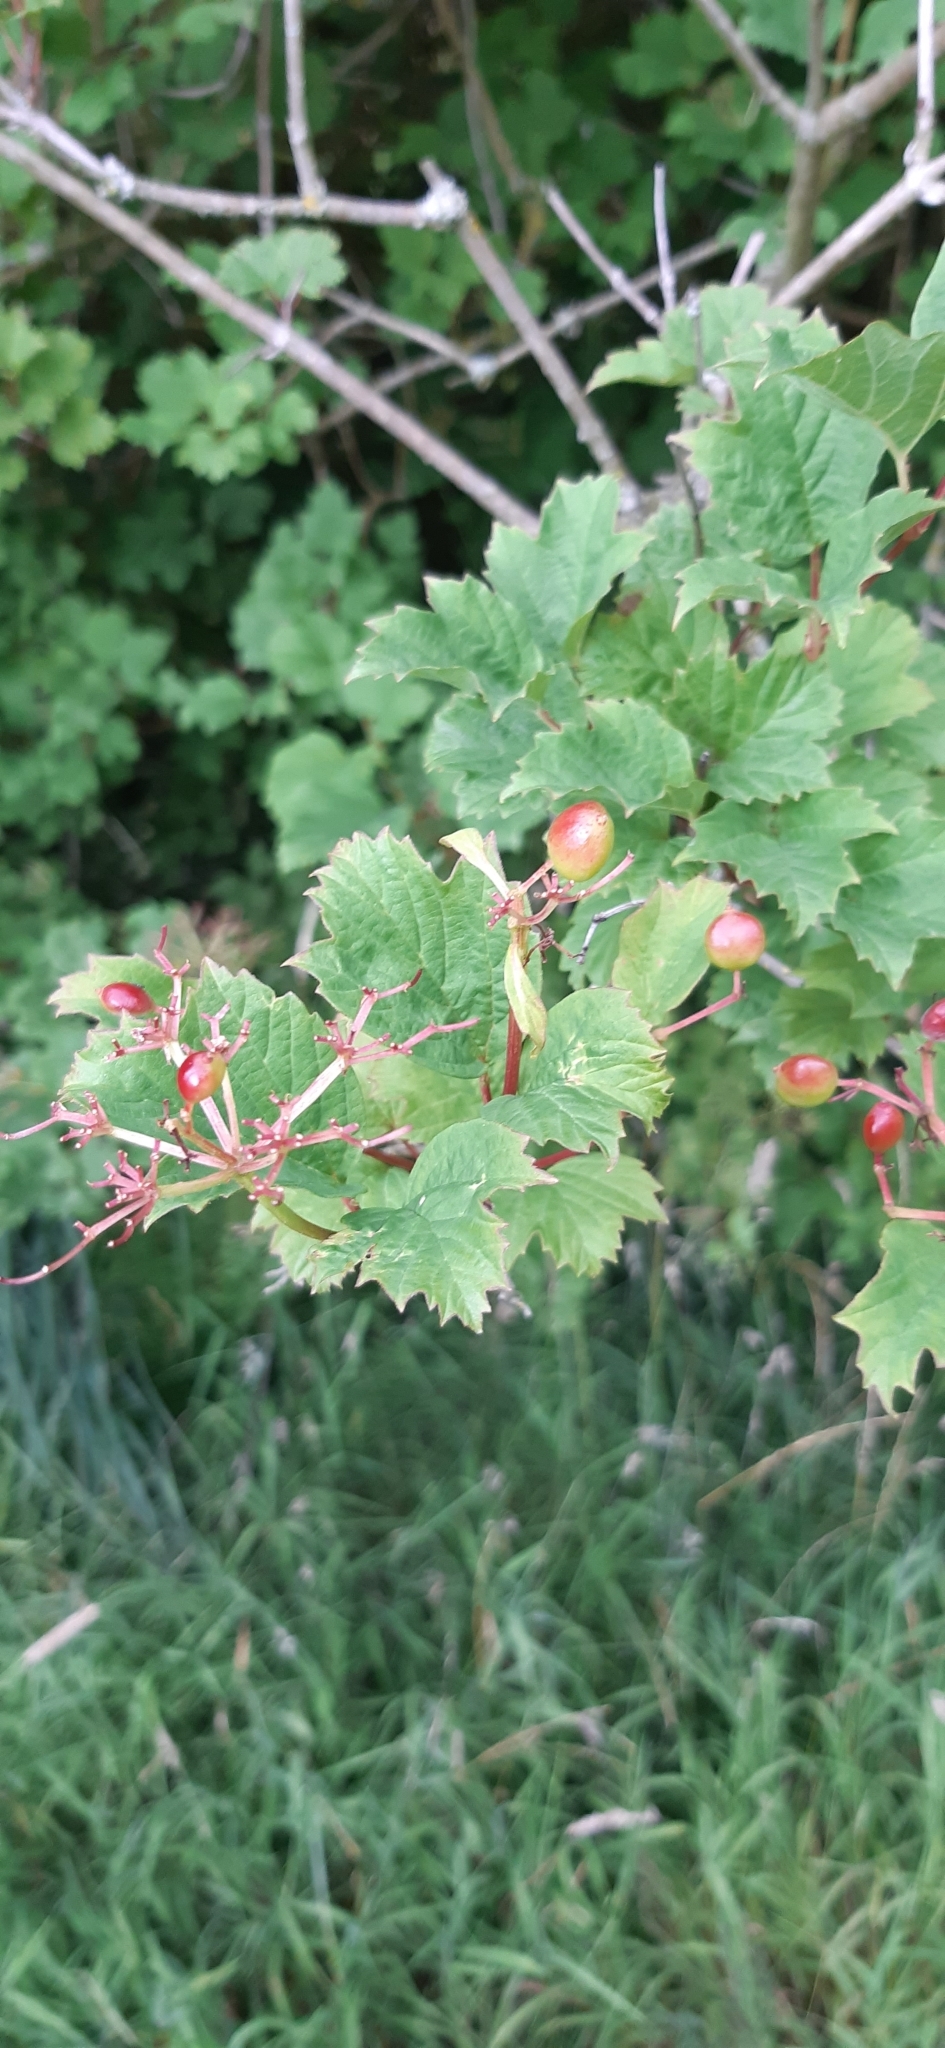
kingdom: Plantae
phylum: Tracheophyta
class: Magnoliopsida
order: Dipsacales
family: Viburnaceae
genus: Viburnum
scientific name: Viburnum opulus
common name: Guelder-rose
